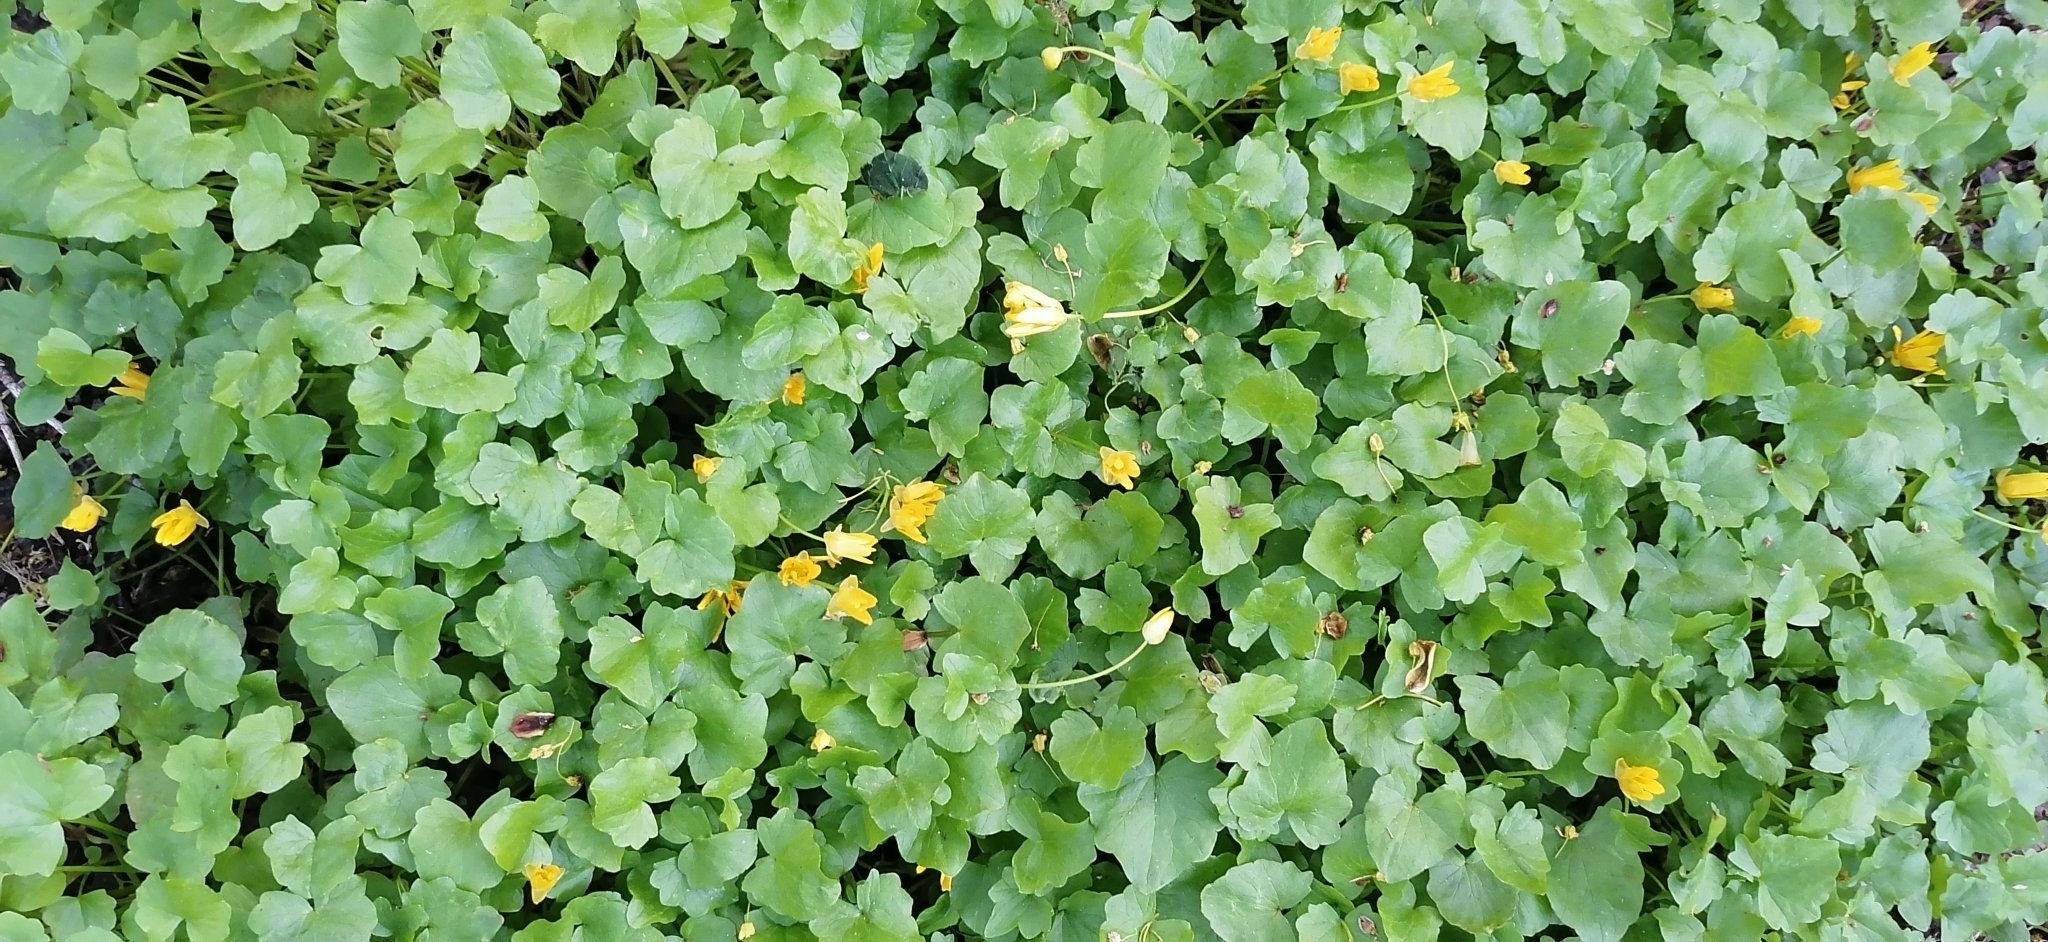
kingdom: Plantae
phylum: Tracheophyta
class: Magnoliopsida
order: Ranunculales
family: Ranunculaceae
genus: Ficaria
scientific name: Ficaria verna
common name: Lesser celandine
